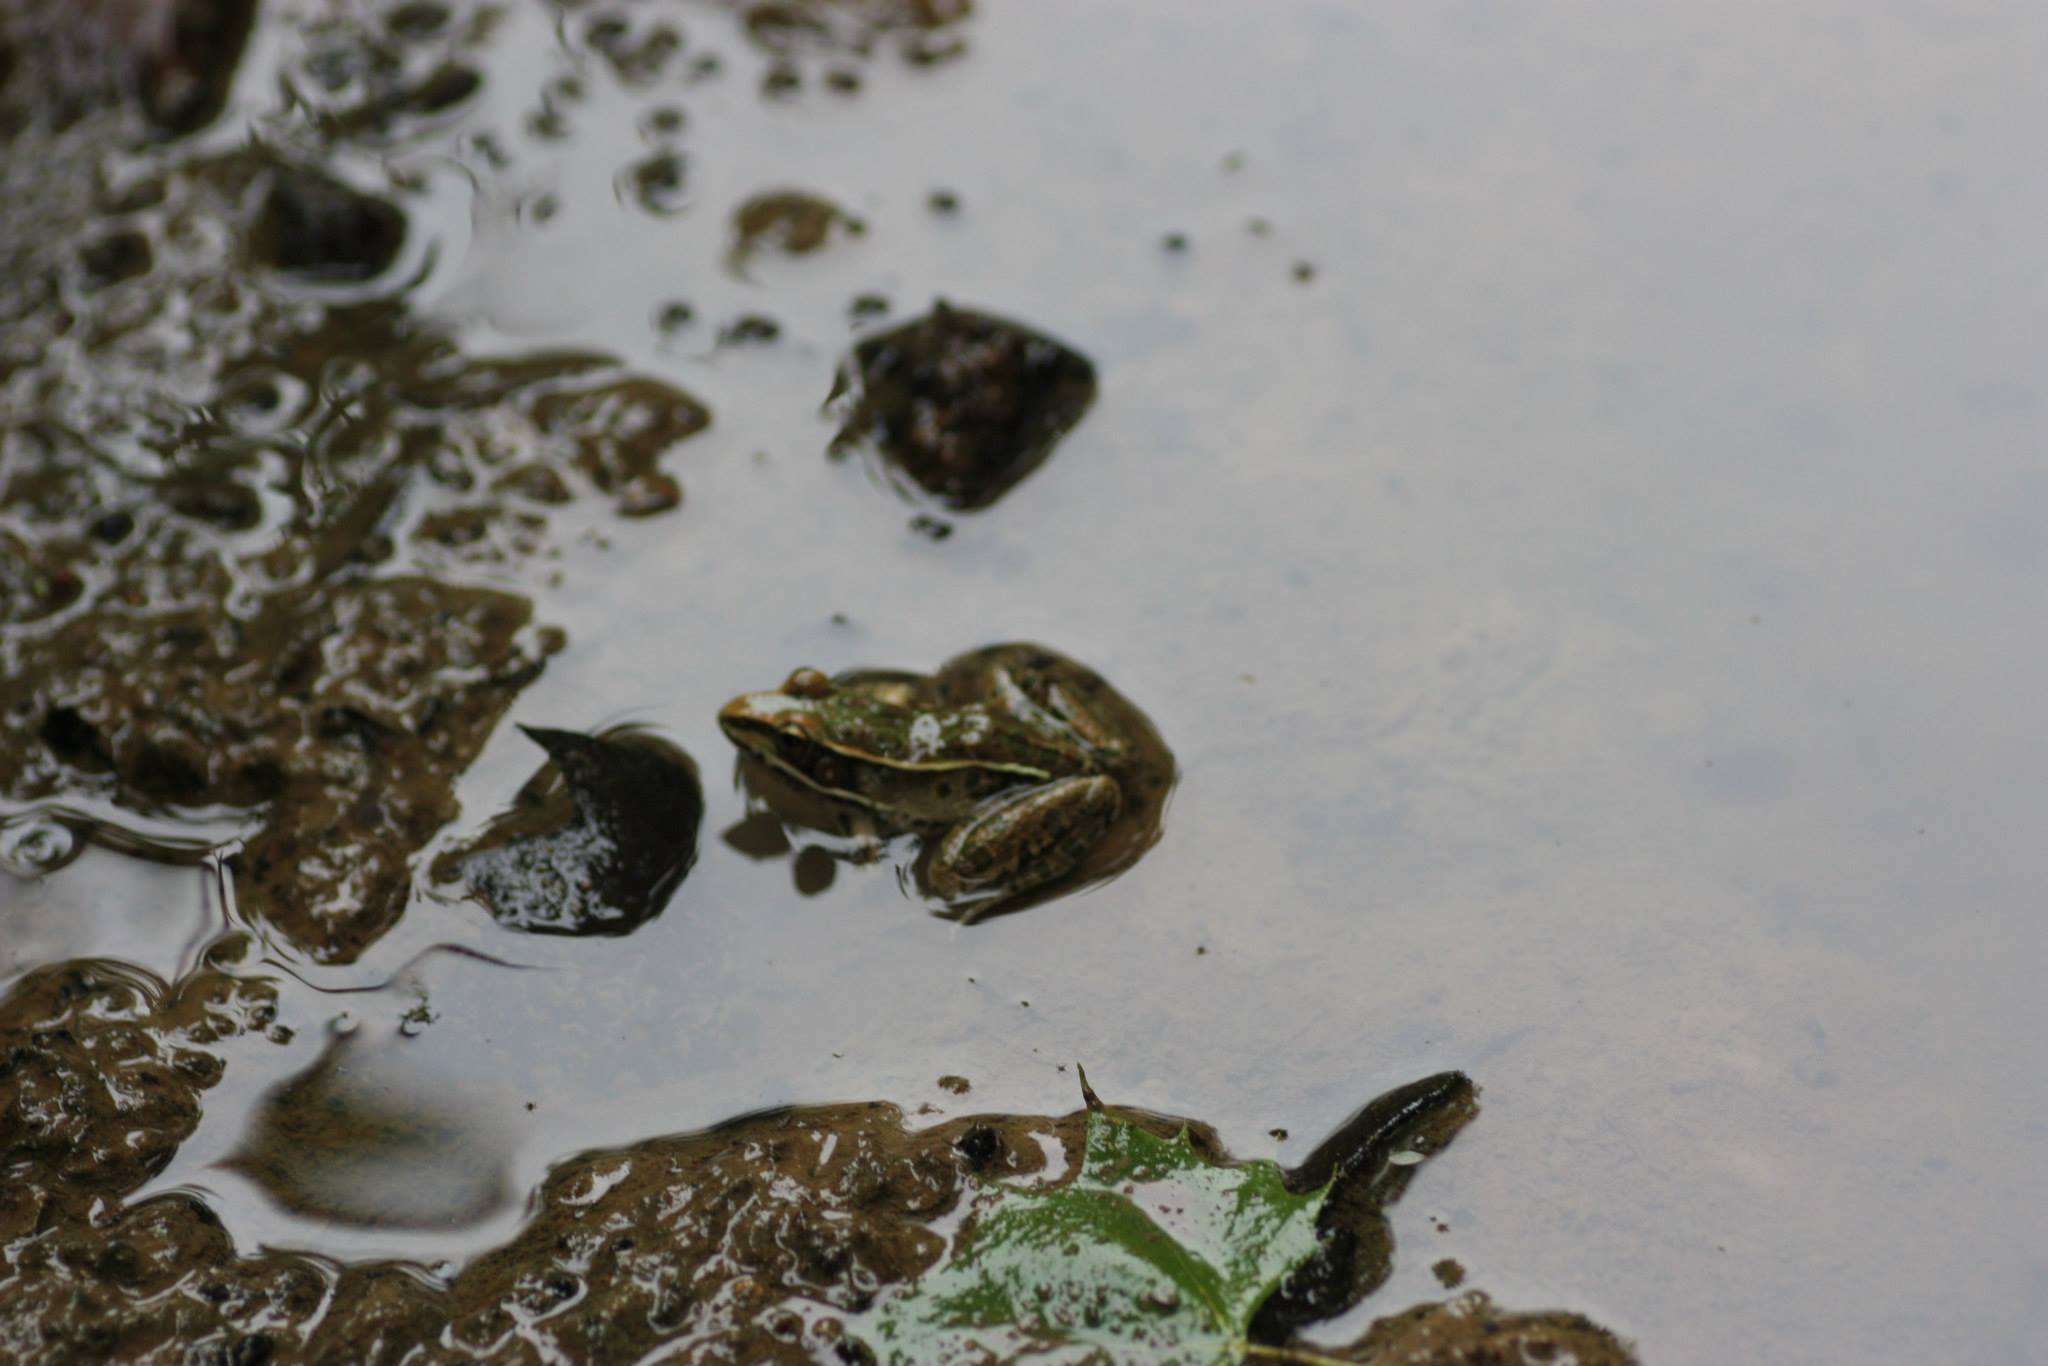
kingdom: Animalia
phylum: Chordata
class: Amphibia
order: Anura
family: Ranidae
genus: Lithobates
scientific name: Lithobates sphenocephalus
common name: Southern leopard frog
